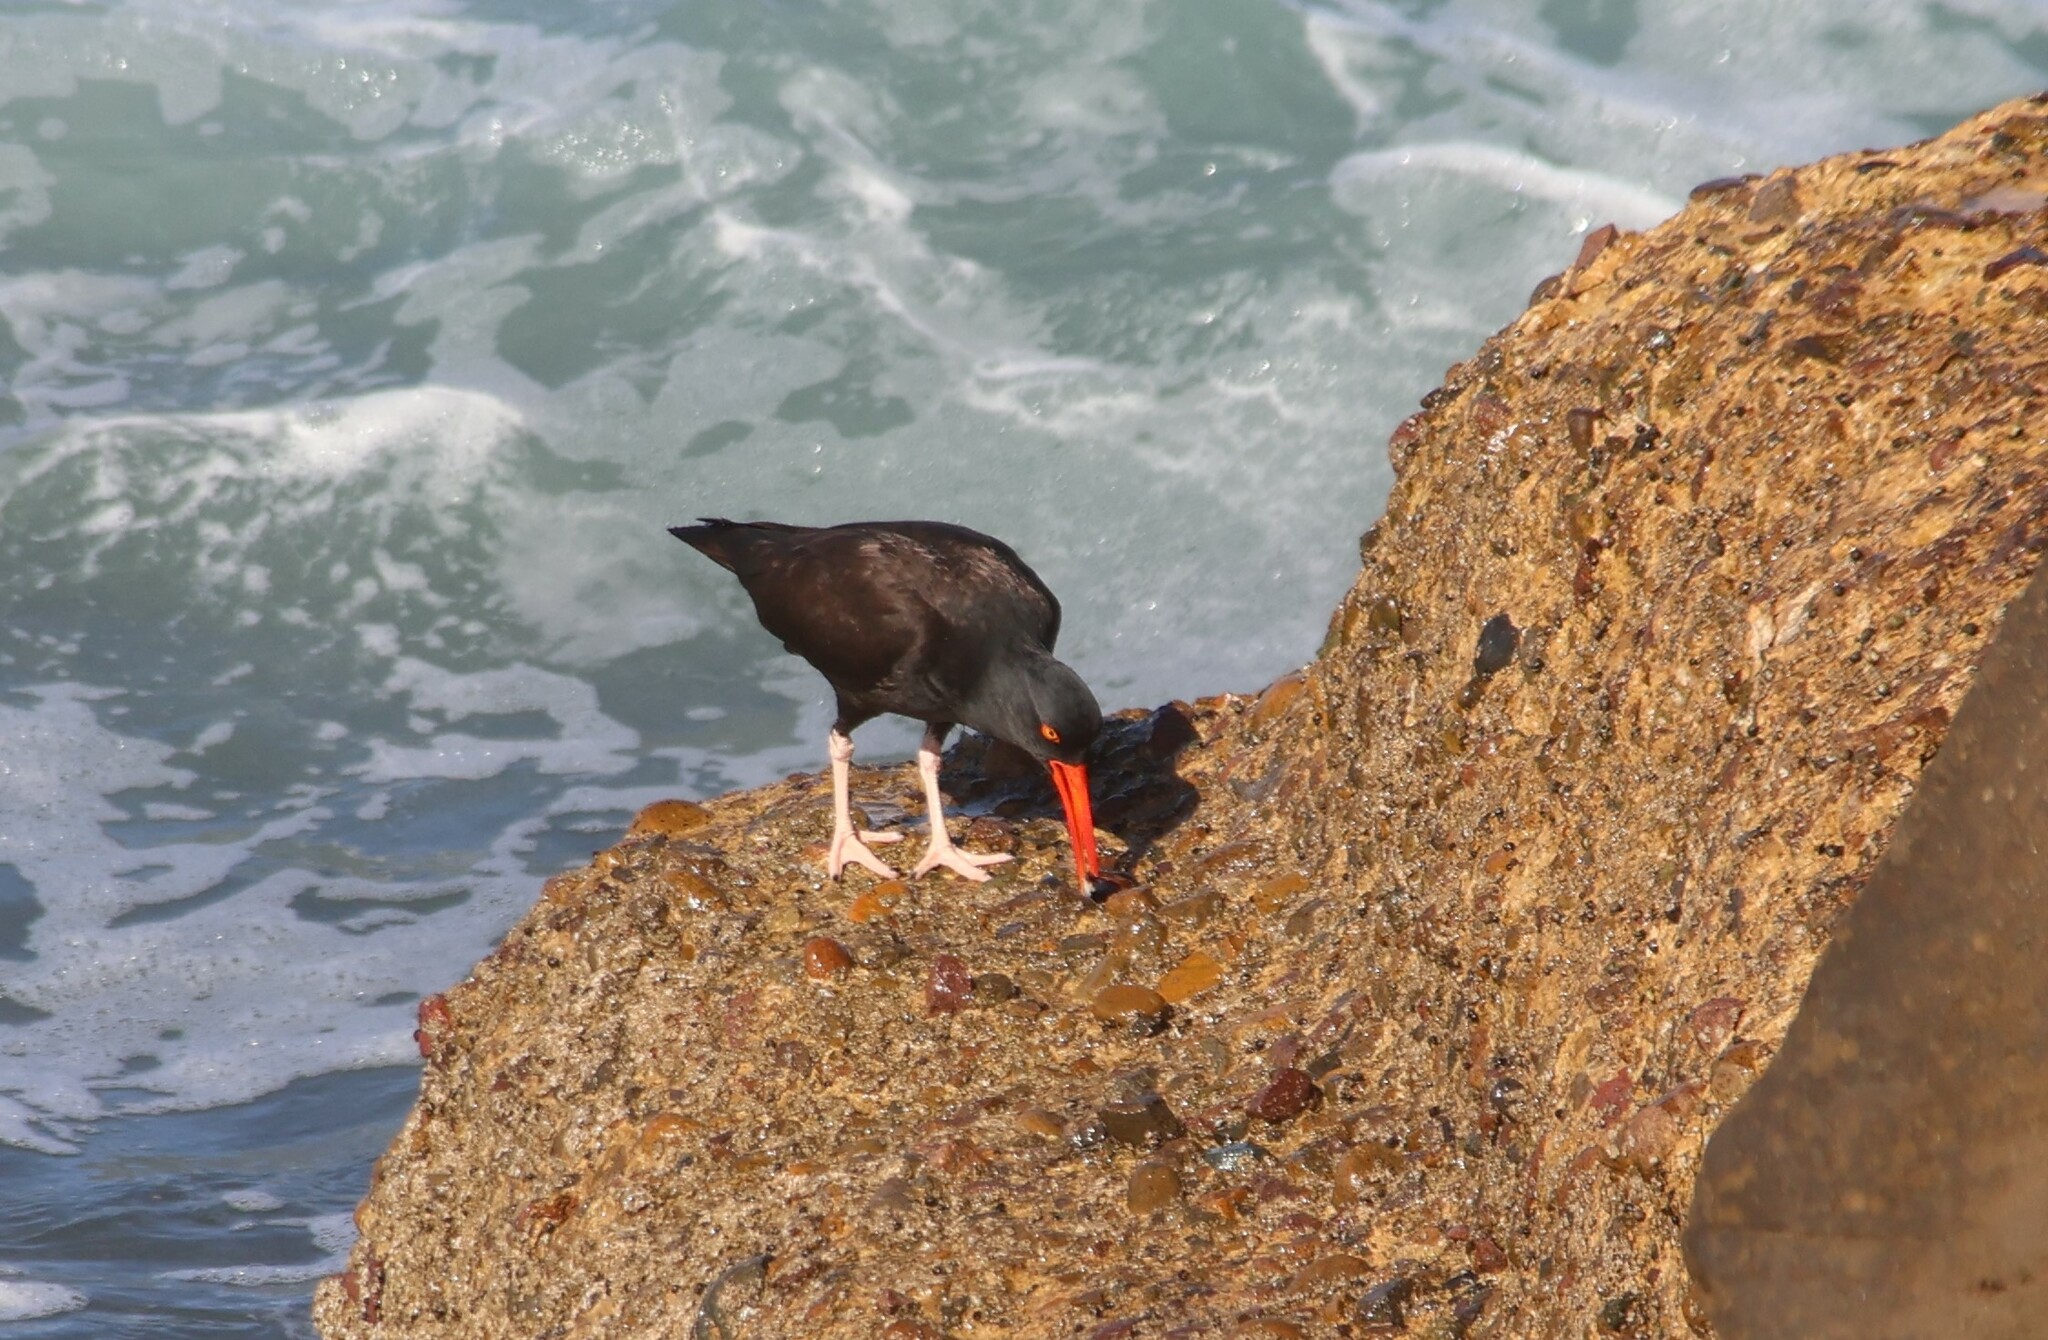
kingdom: Animalia
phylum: Chordata
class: Aves
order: Charadriiformes
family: Haematopodidae
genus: Haematopus
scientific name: Haematopus bachmani
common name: Black oystercatcher
